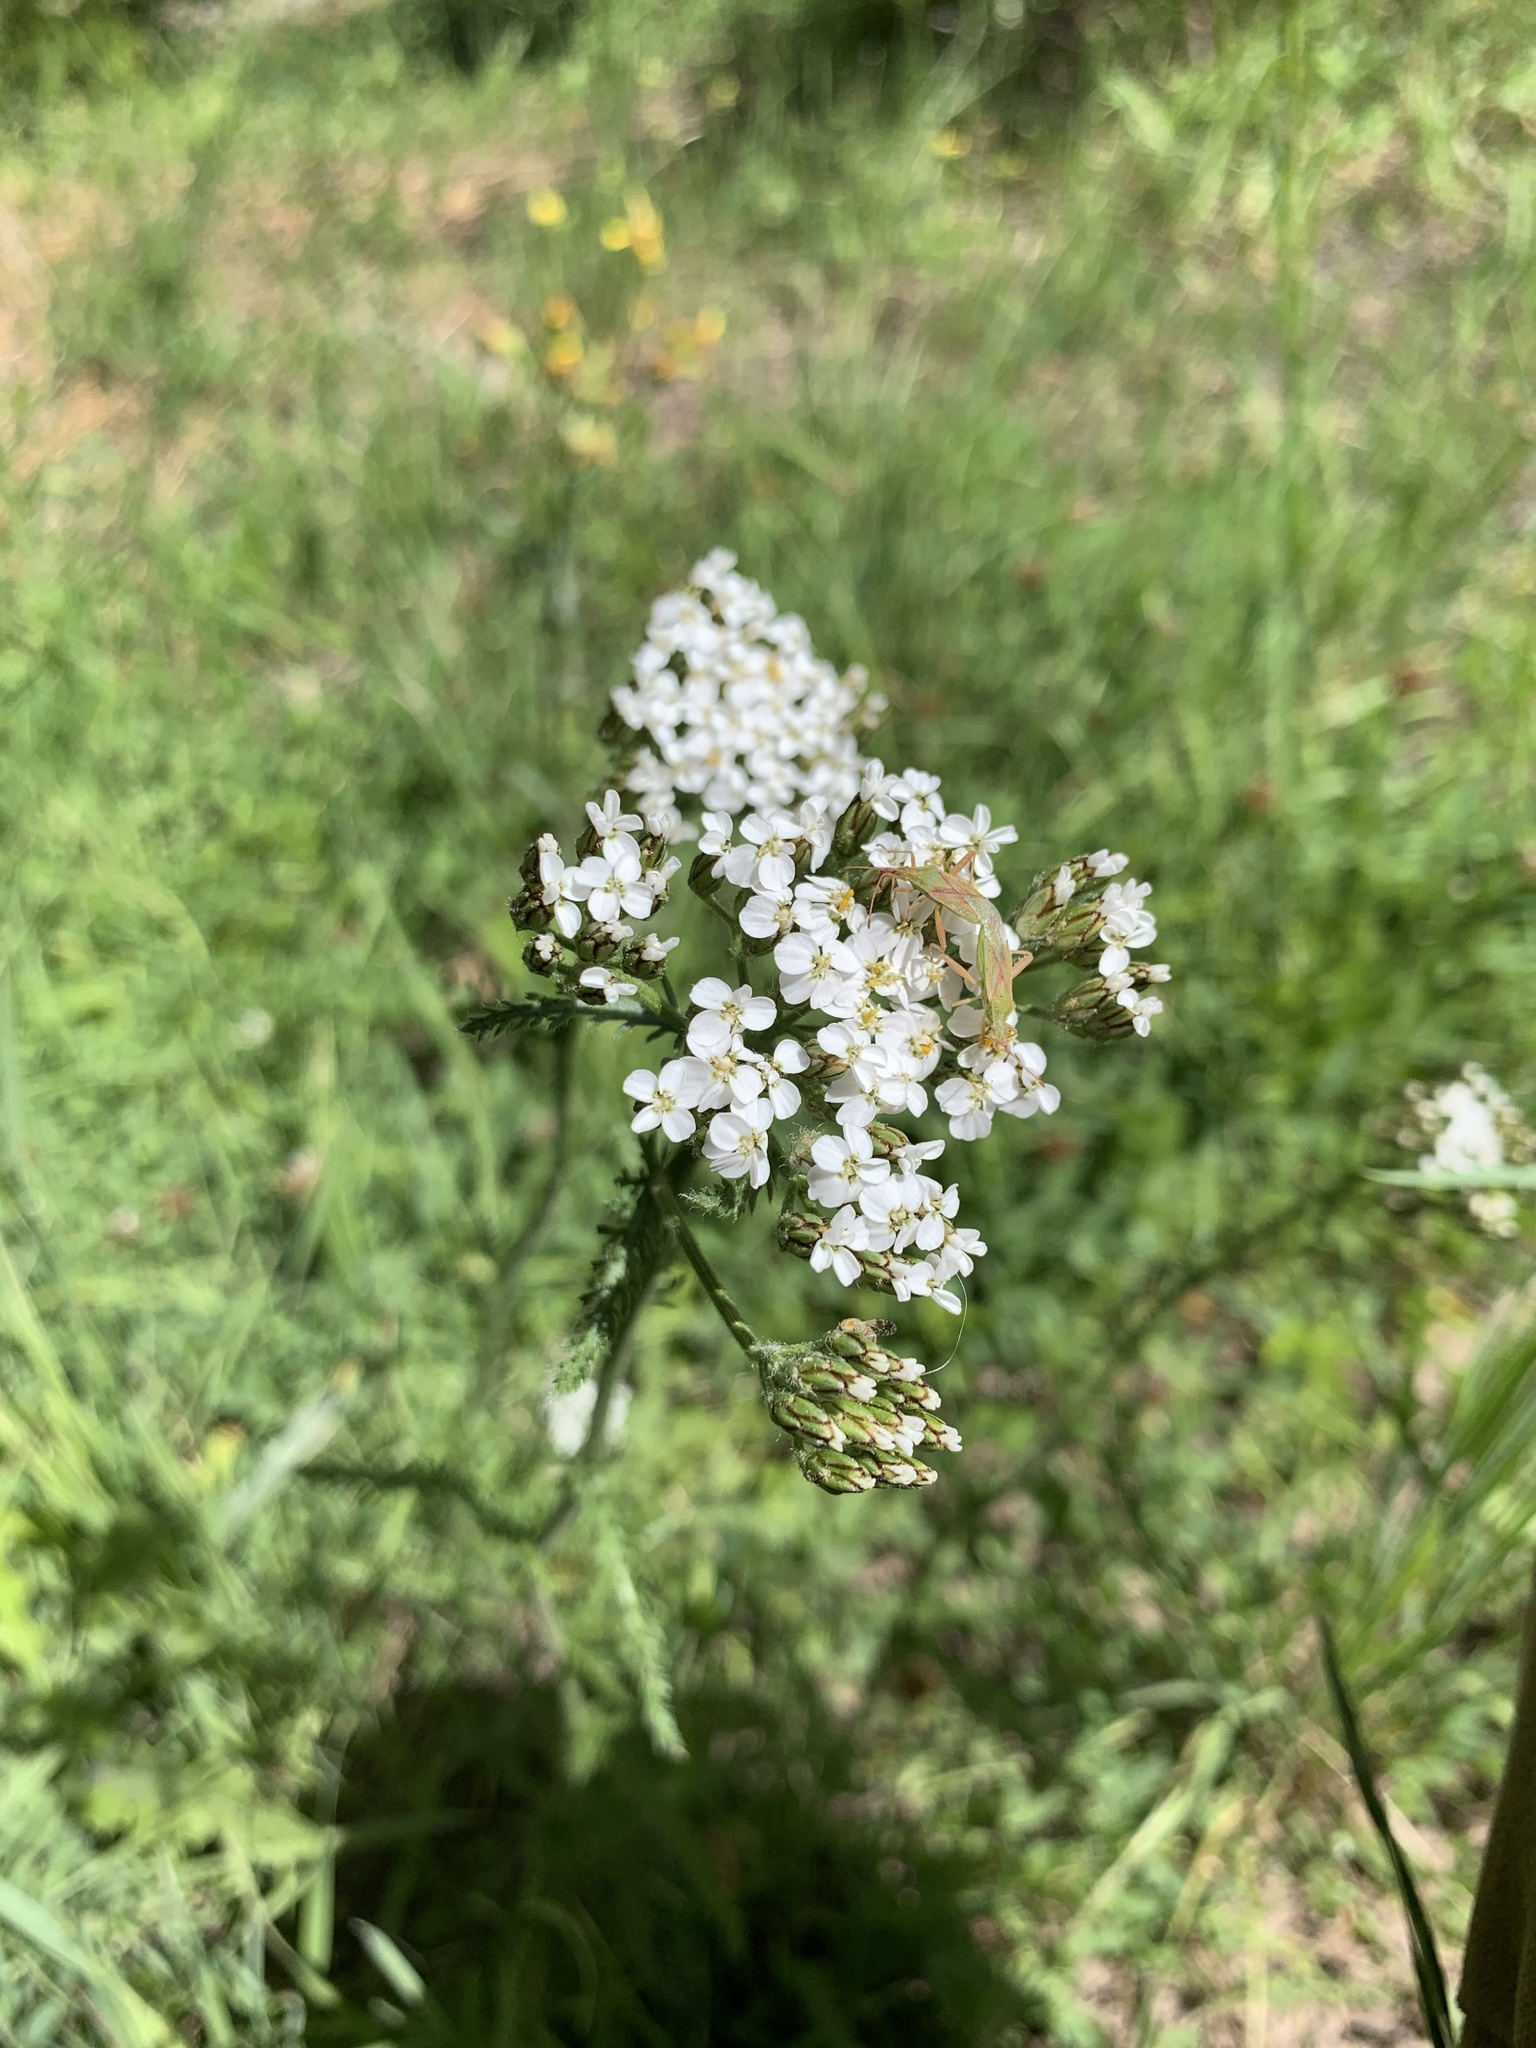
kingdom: Plantae
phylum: Tracheophyta
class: Magnoliopsida
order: Asterales
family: Asteraceae
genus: Achillea
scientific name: Achillea millefolium
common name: Yarrow
